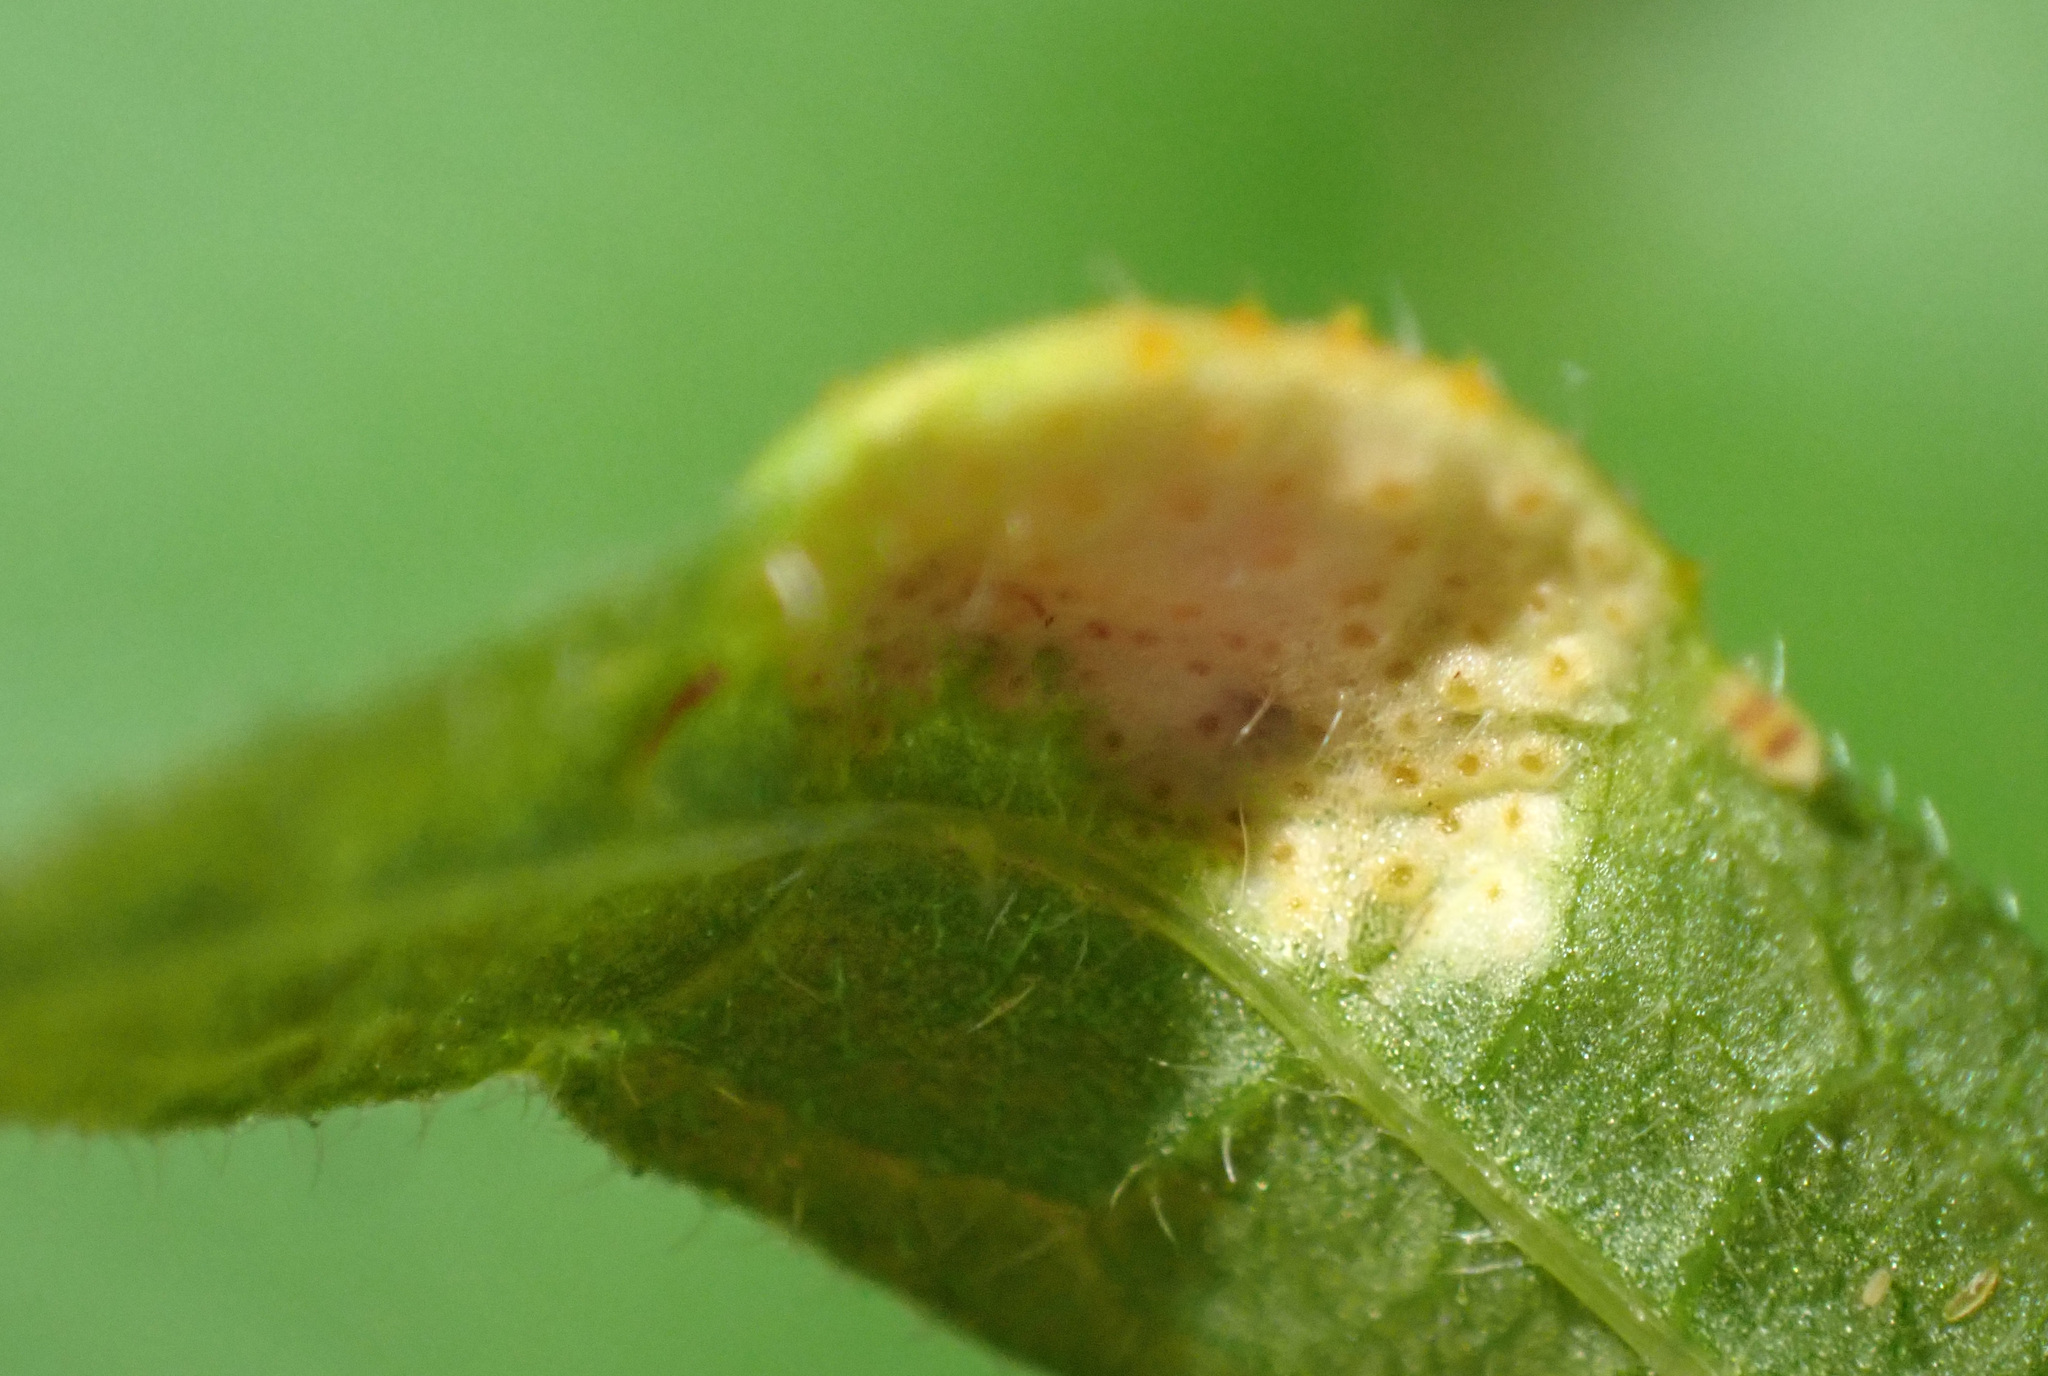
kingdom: Fungi
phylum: Basidiomycota
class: Pucciniomycetes
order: Pucciniales
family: Pucciniaceae
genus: Puccinia
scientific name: Puccinia urticata
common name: Nettle clustercup rust fungus
